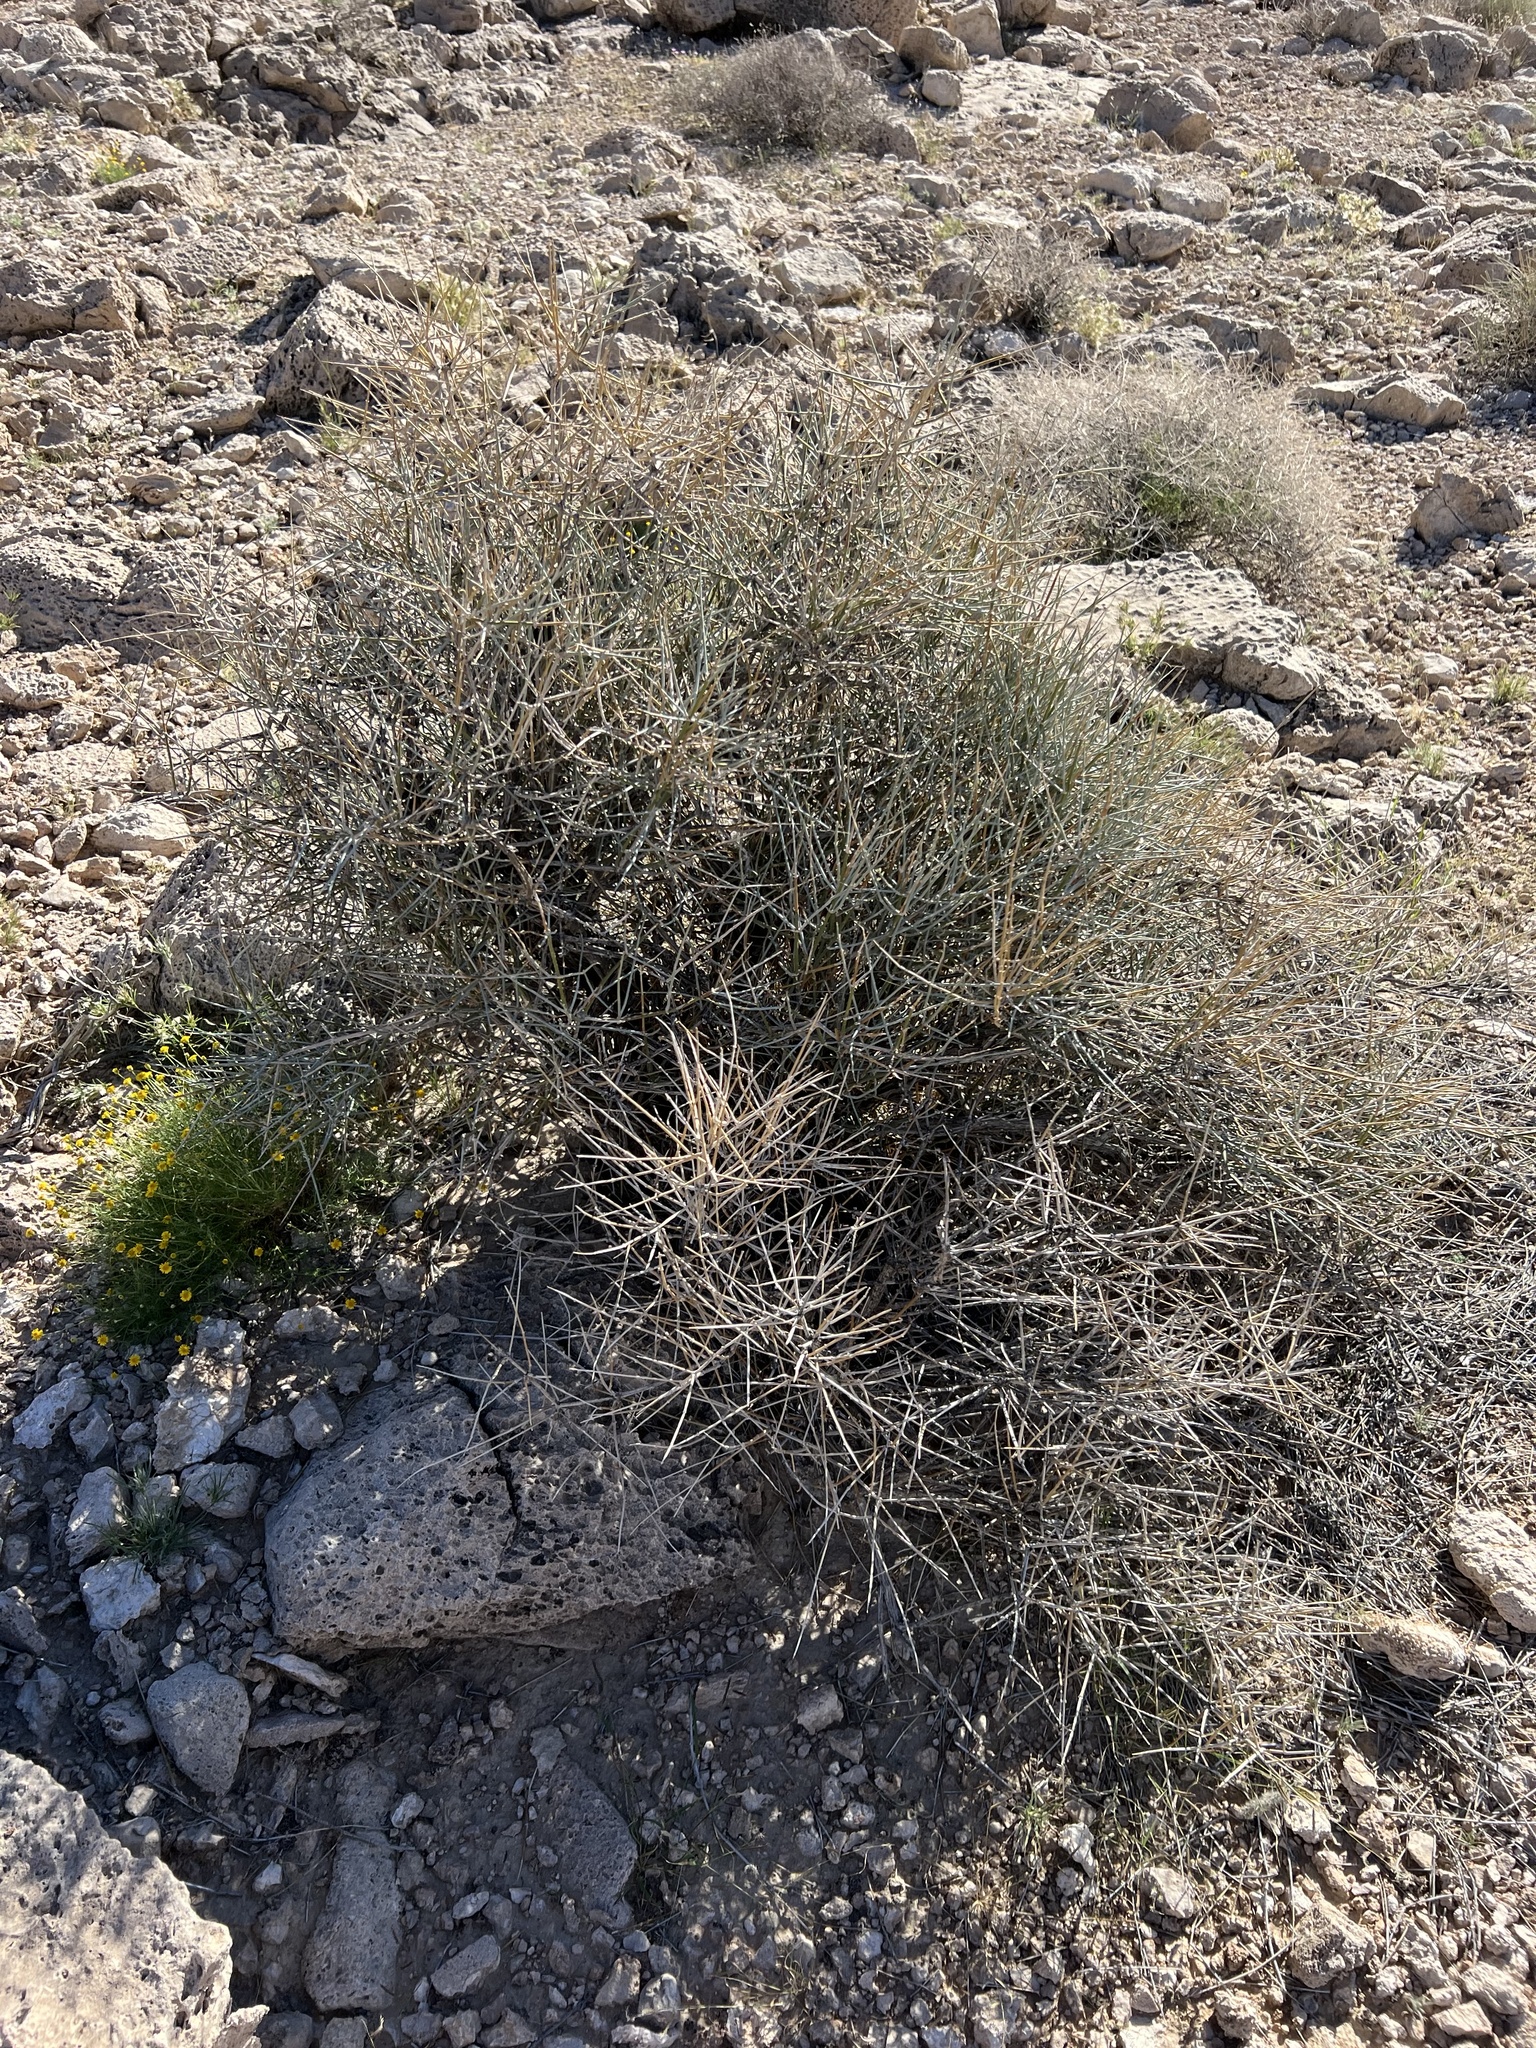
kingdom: Plantae
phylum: Tracheophyta
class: Gnetopsida
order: Ephedrales
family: Ephedraceae
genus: Ephedra
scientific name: Ephedra nevadensis
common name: Gray ephedra
